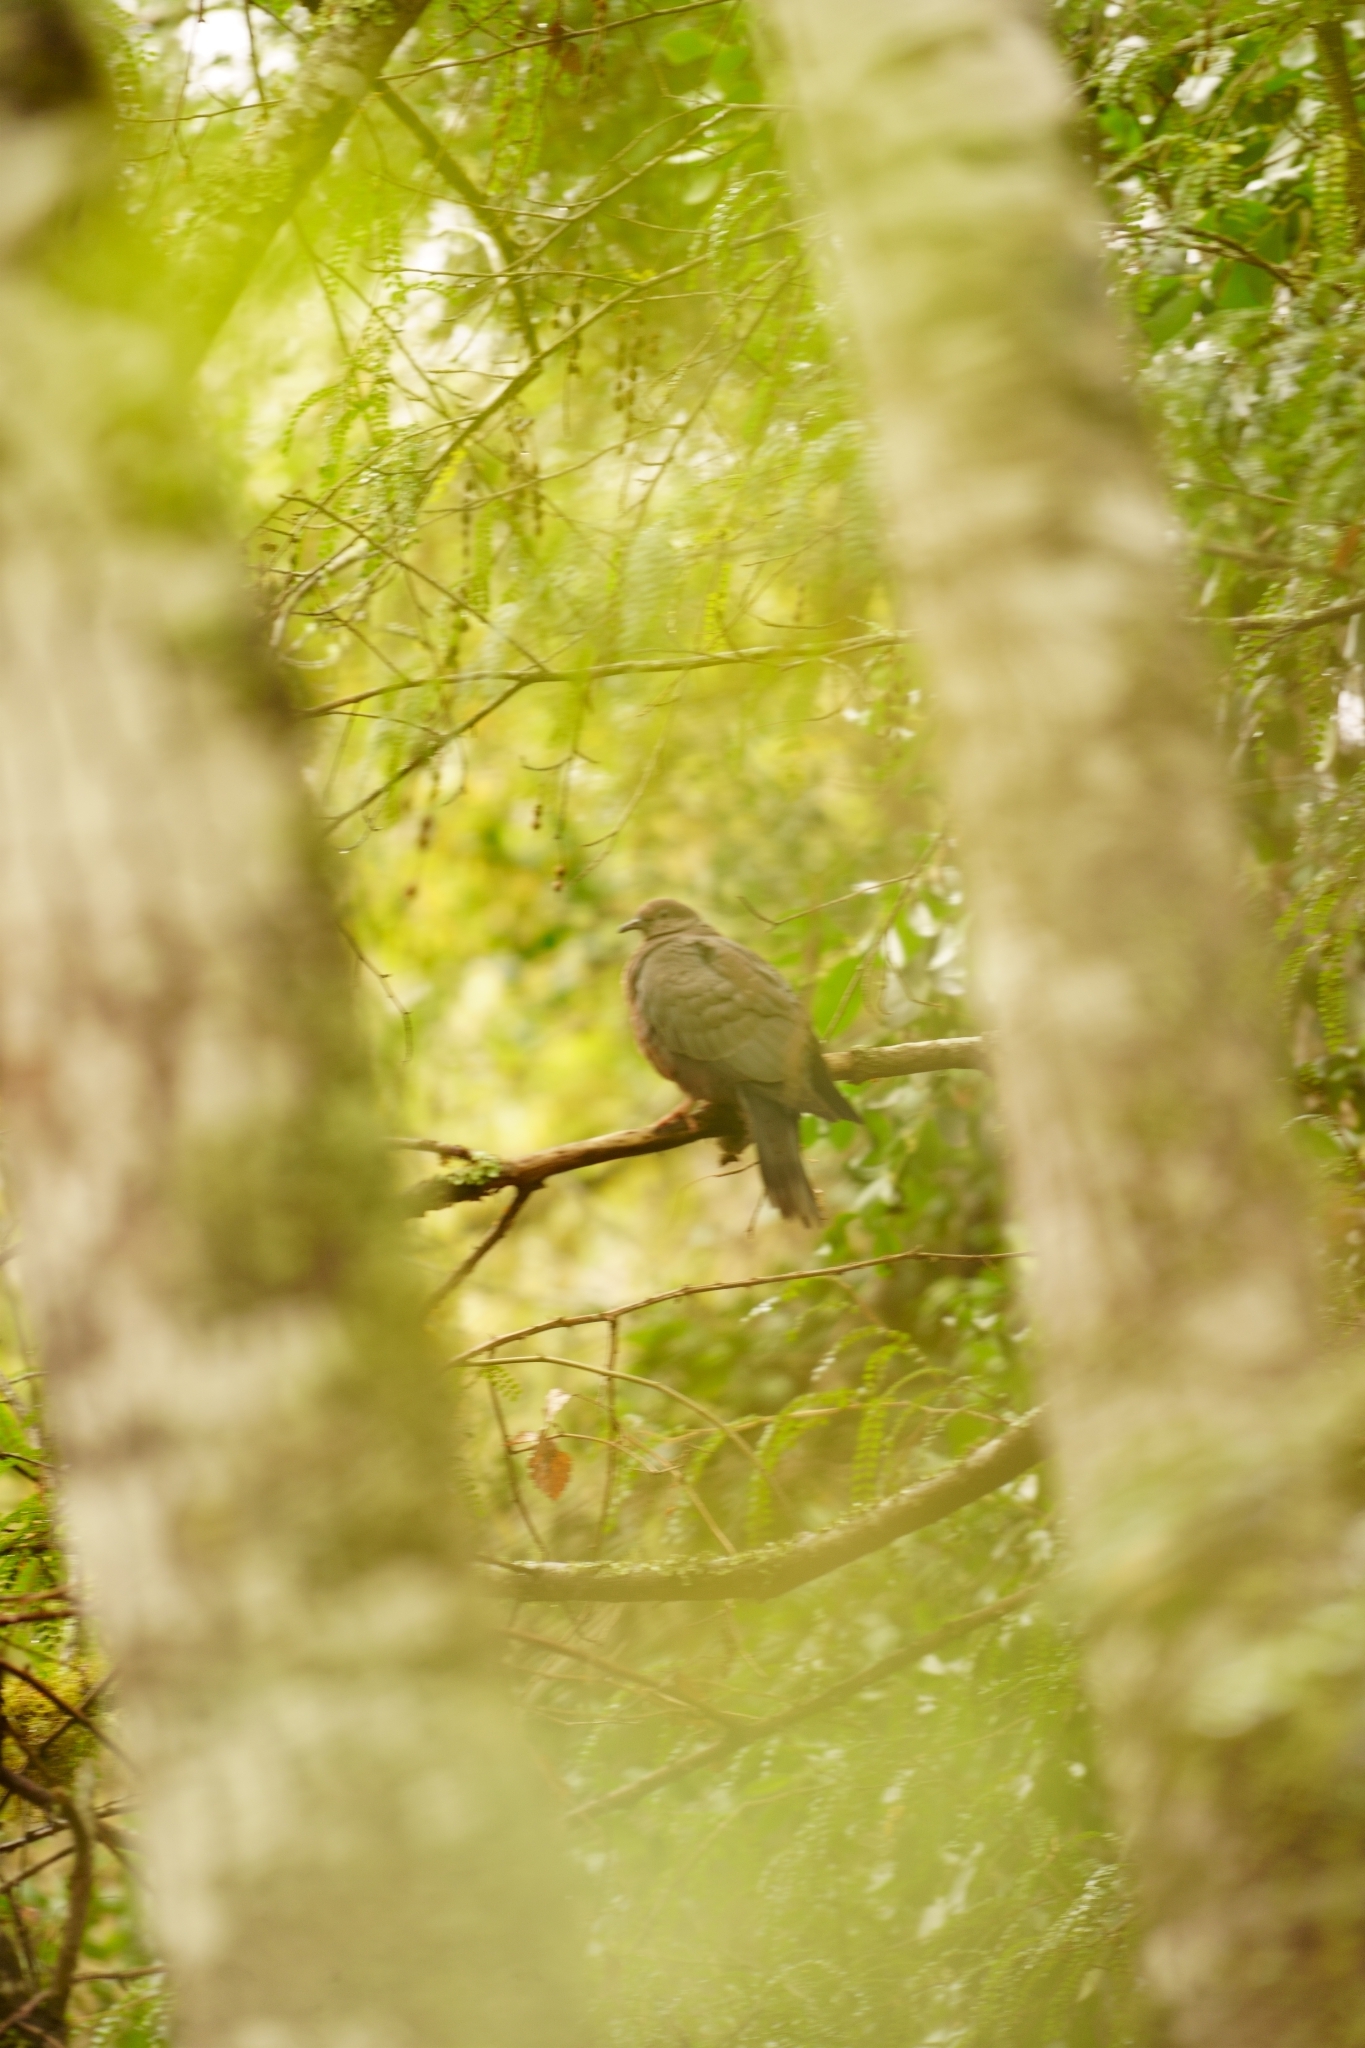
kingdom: Animalia
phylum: Chordata
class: Aves
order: Columbiformes
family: Columbidae
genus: Zenaida
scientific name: Zenaida auriculata
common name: Eared dove
